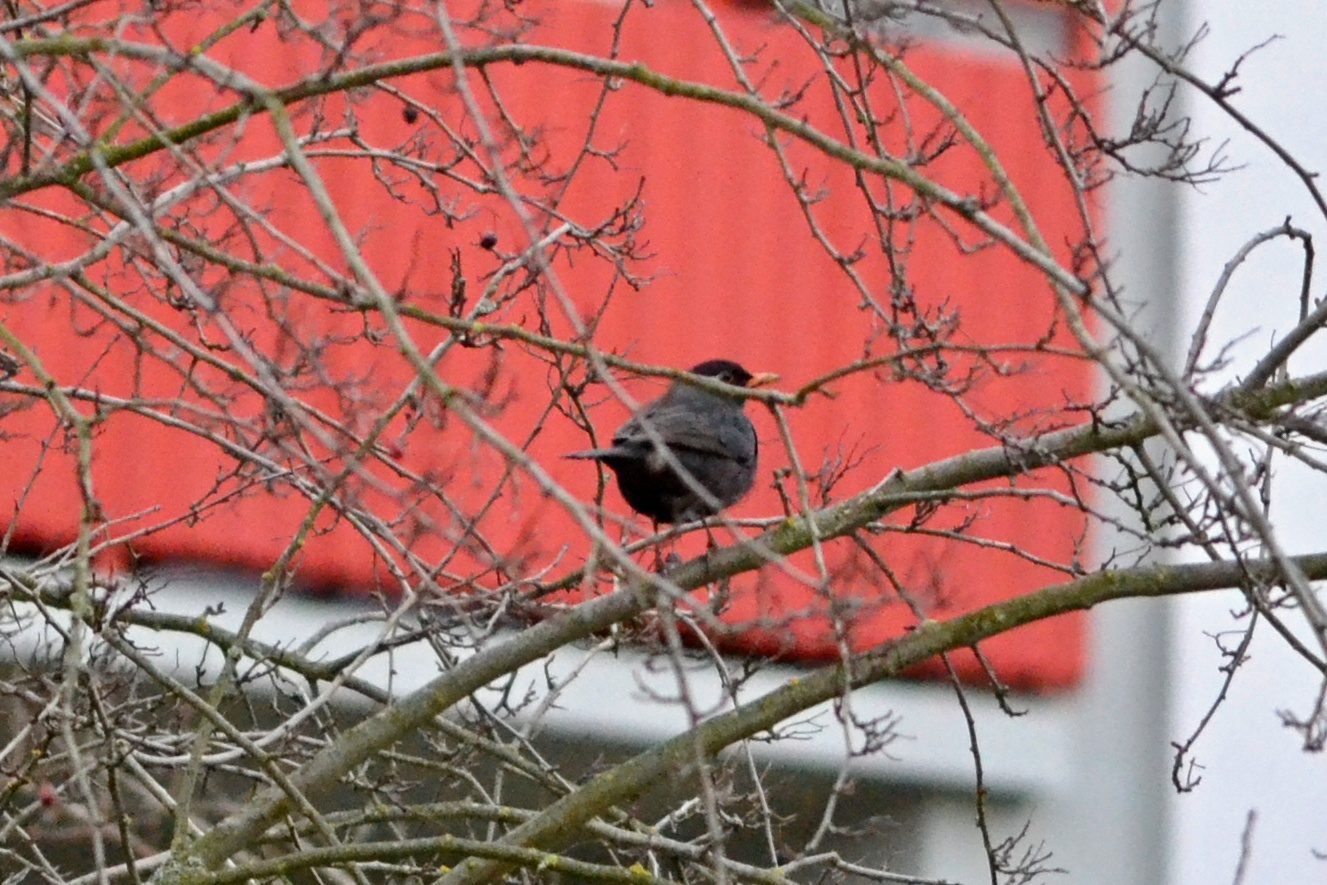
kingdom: Animalia
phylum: Chordata
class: Aves
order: Passeriformes
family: Turdidae
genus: Turdus
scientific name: Turdus merula
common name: Common blackbird
